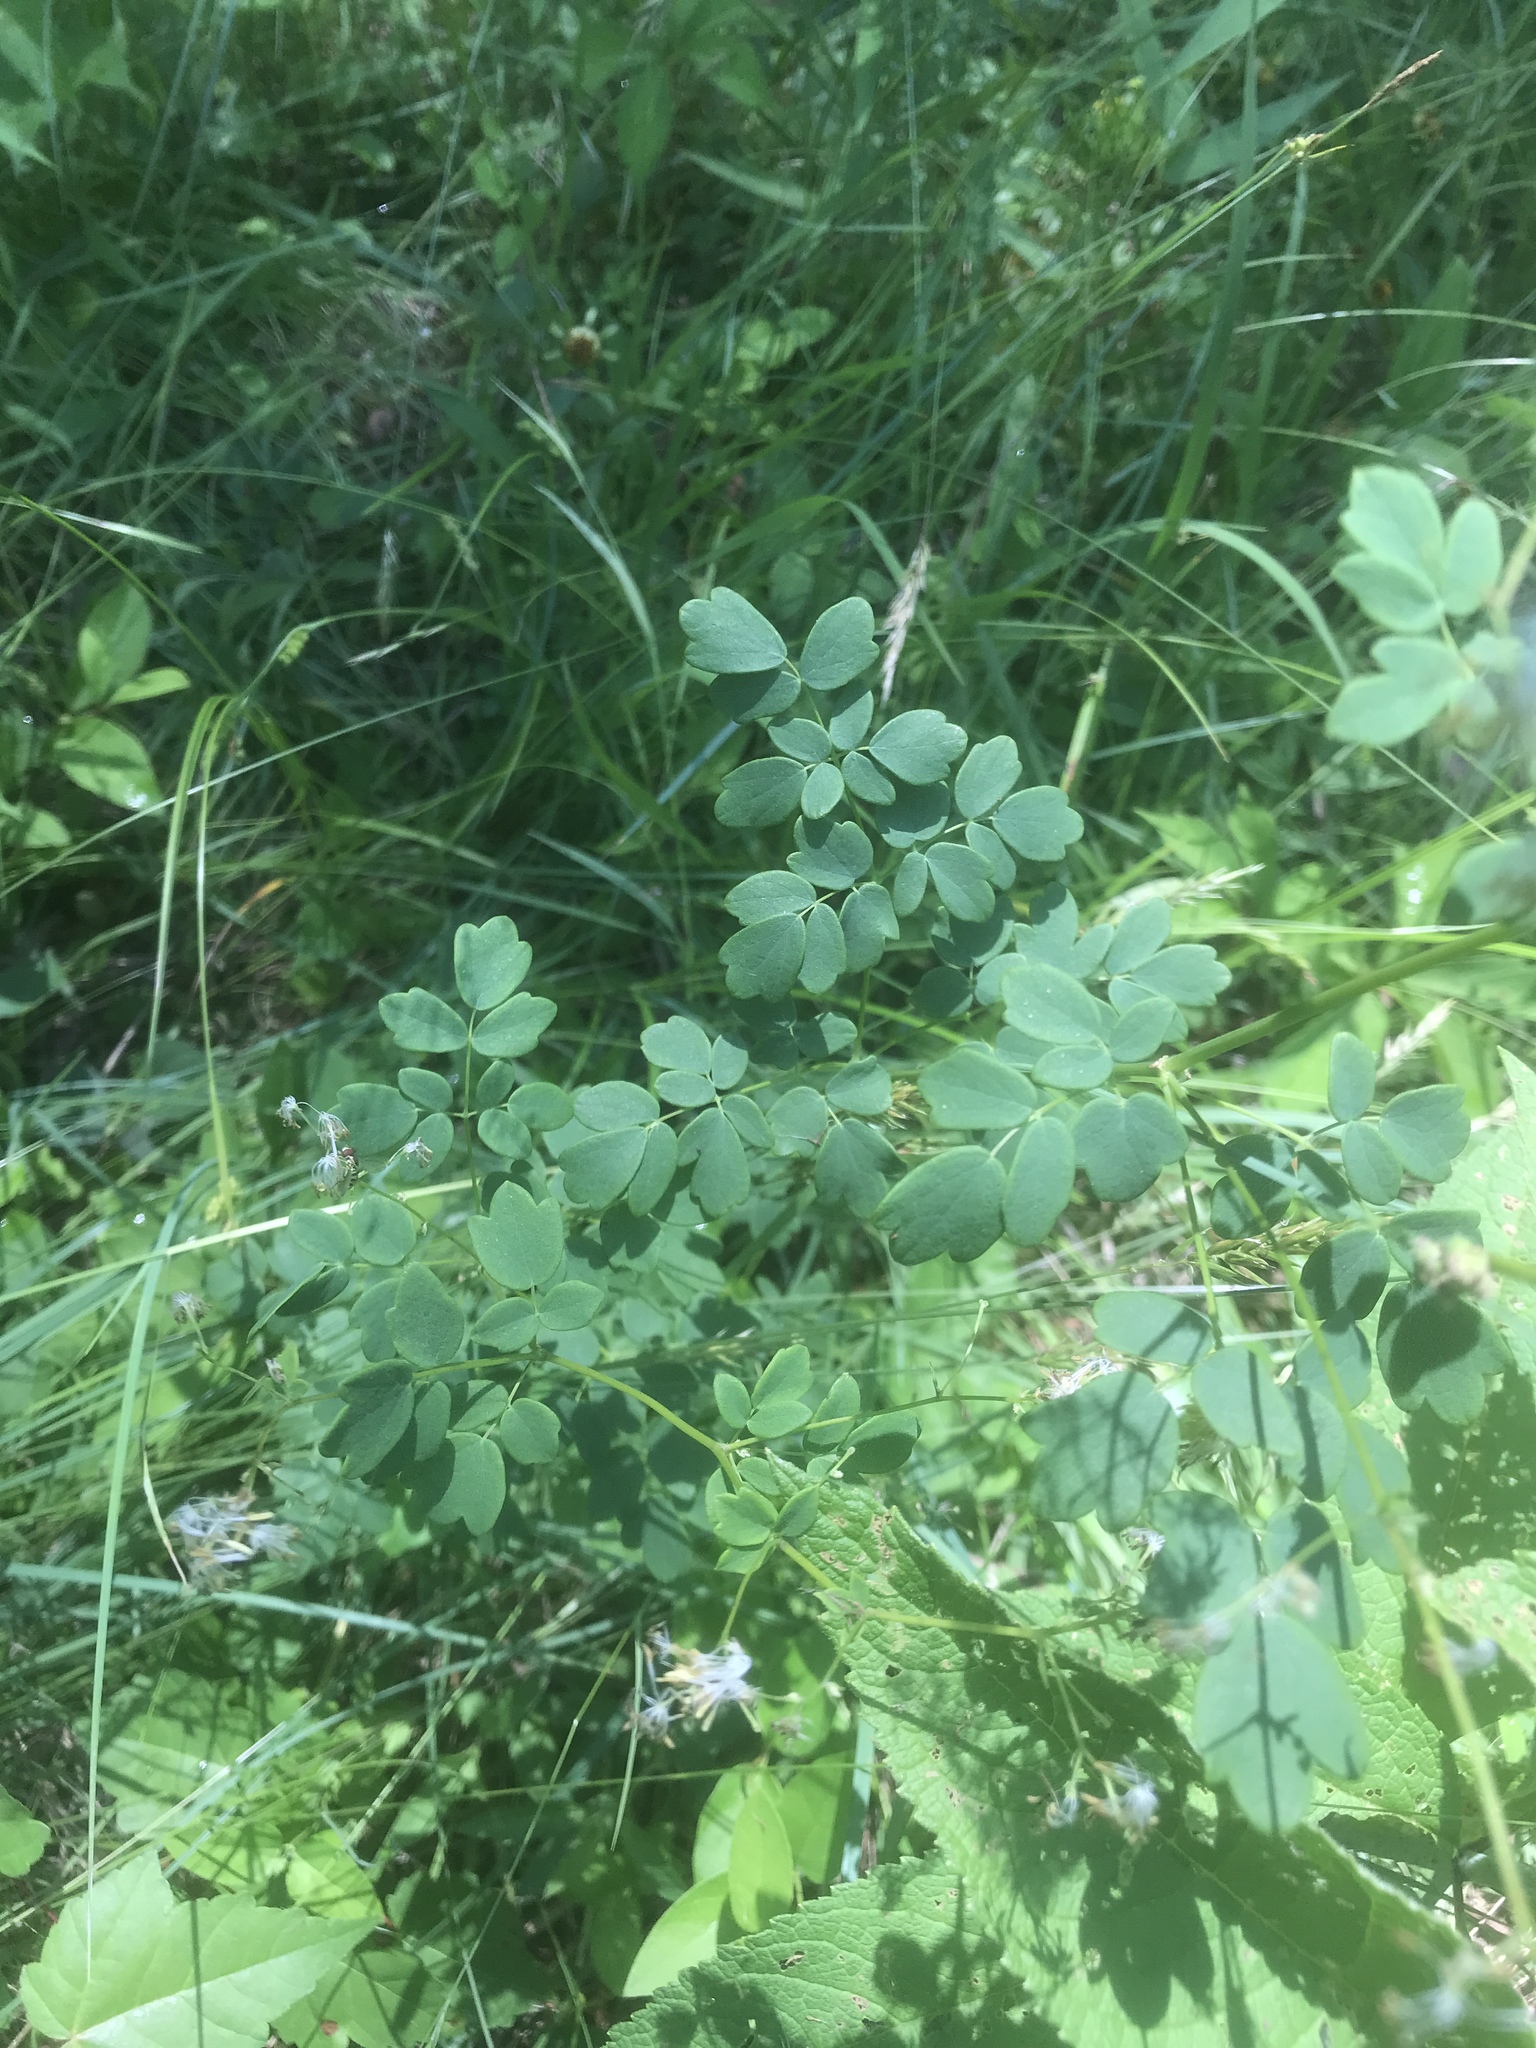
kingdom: Plantae
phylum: Tracheophyta
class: Magnoliopsida
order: Ranunculales
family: Ranunculaceae
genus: Thalictrum
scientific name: Thalictrum revolutum
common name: Waxy meadow-rue
